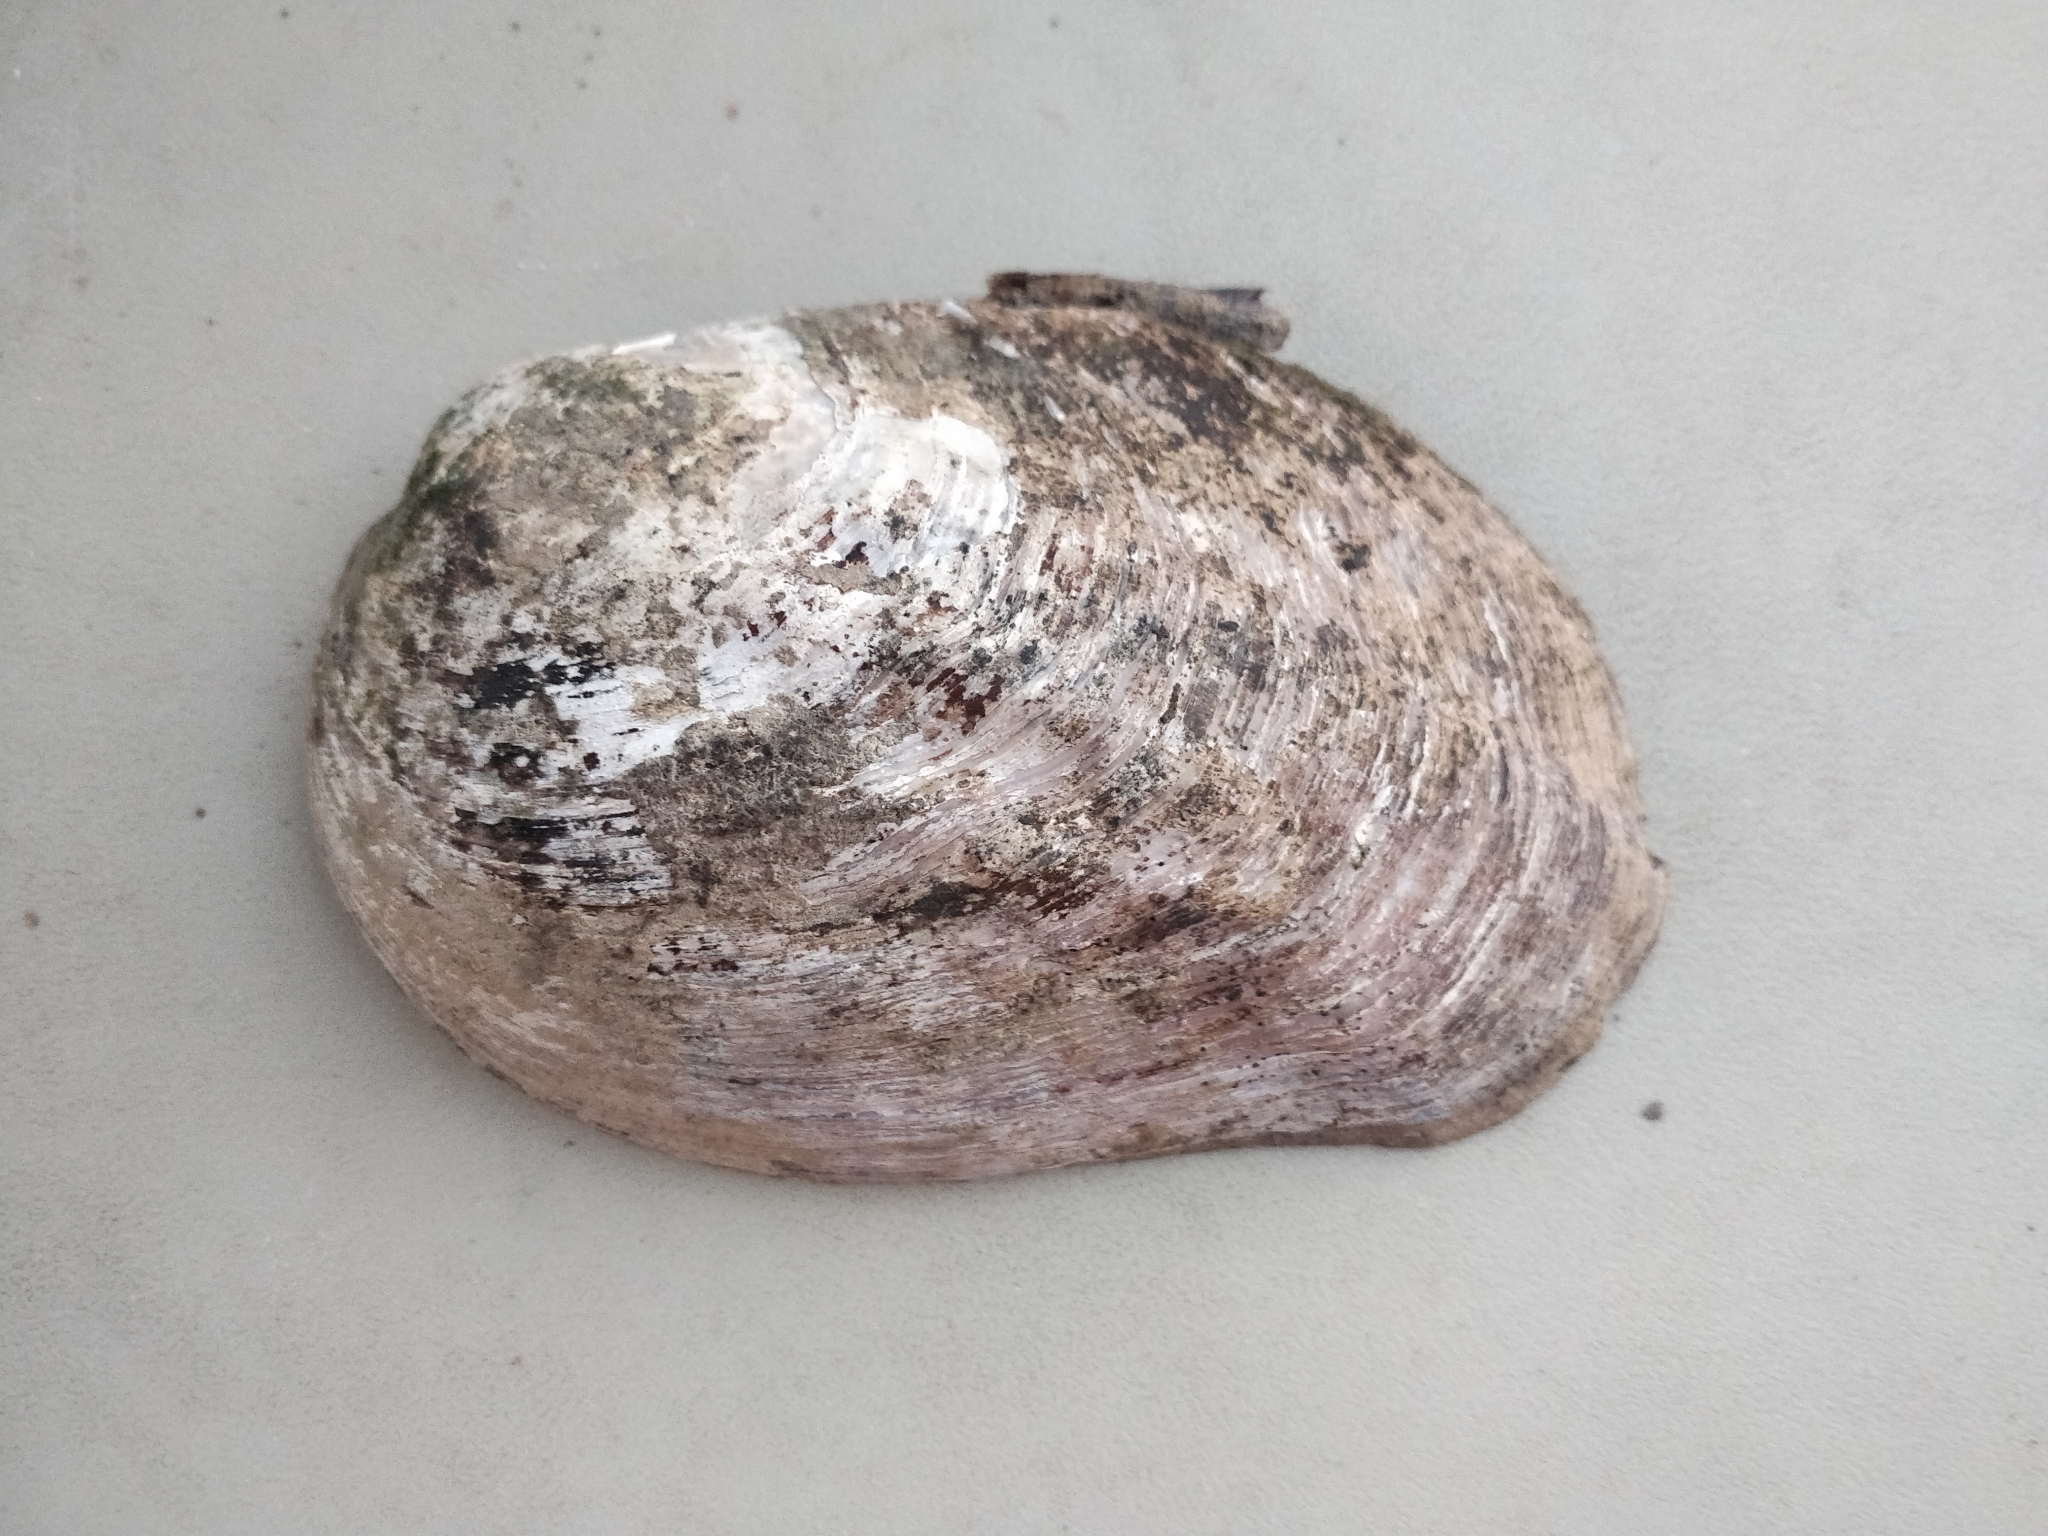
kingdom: Animalia
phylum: Mollusca
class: Bivalvia
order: Unionida
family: Unionidae
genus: Amblema
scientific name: Amblema plicata
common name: Threeridge
